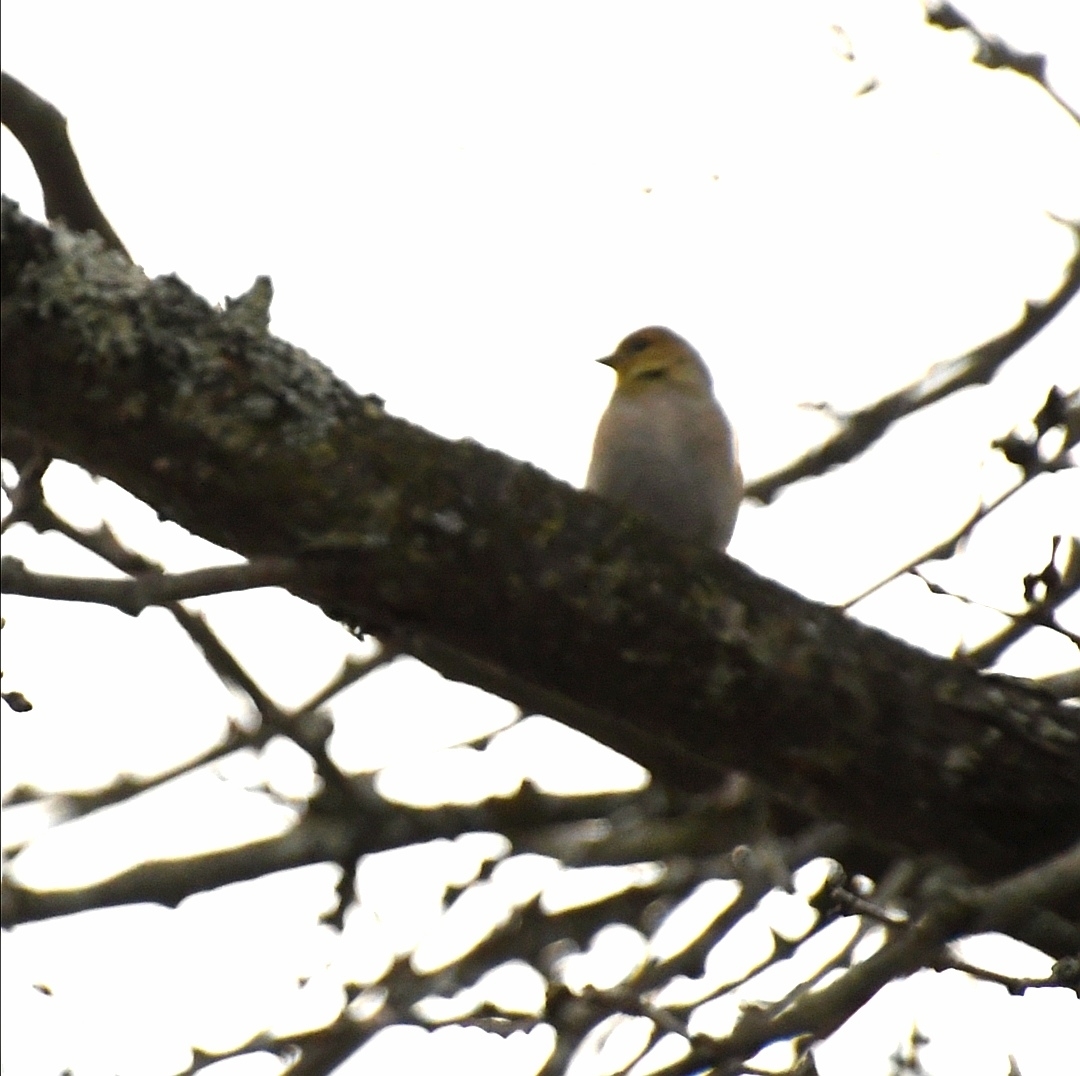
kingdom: Animalia
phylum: Chordata
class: Aves
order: Passeriformes
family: Fringillidae
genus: Spinus
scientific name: Spinus tristis
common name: American goldfinch
